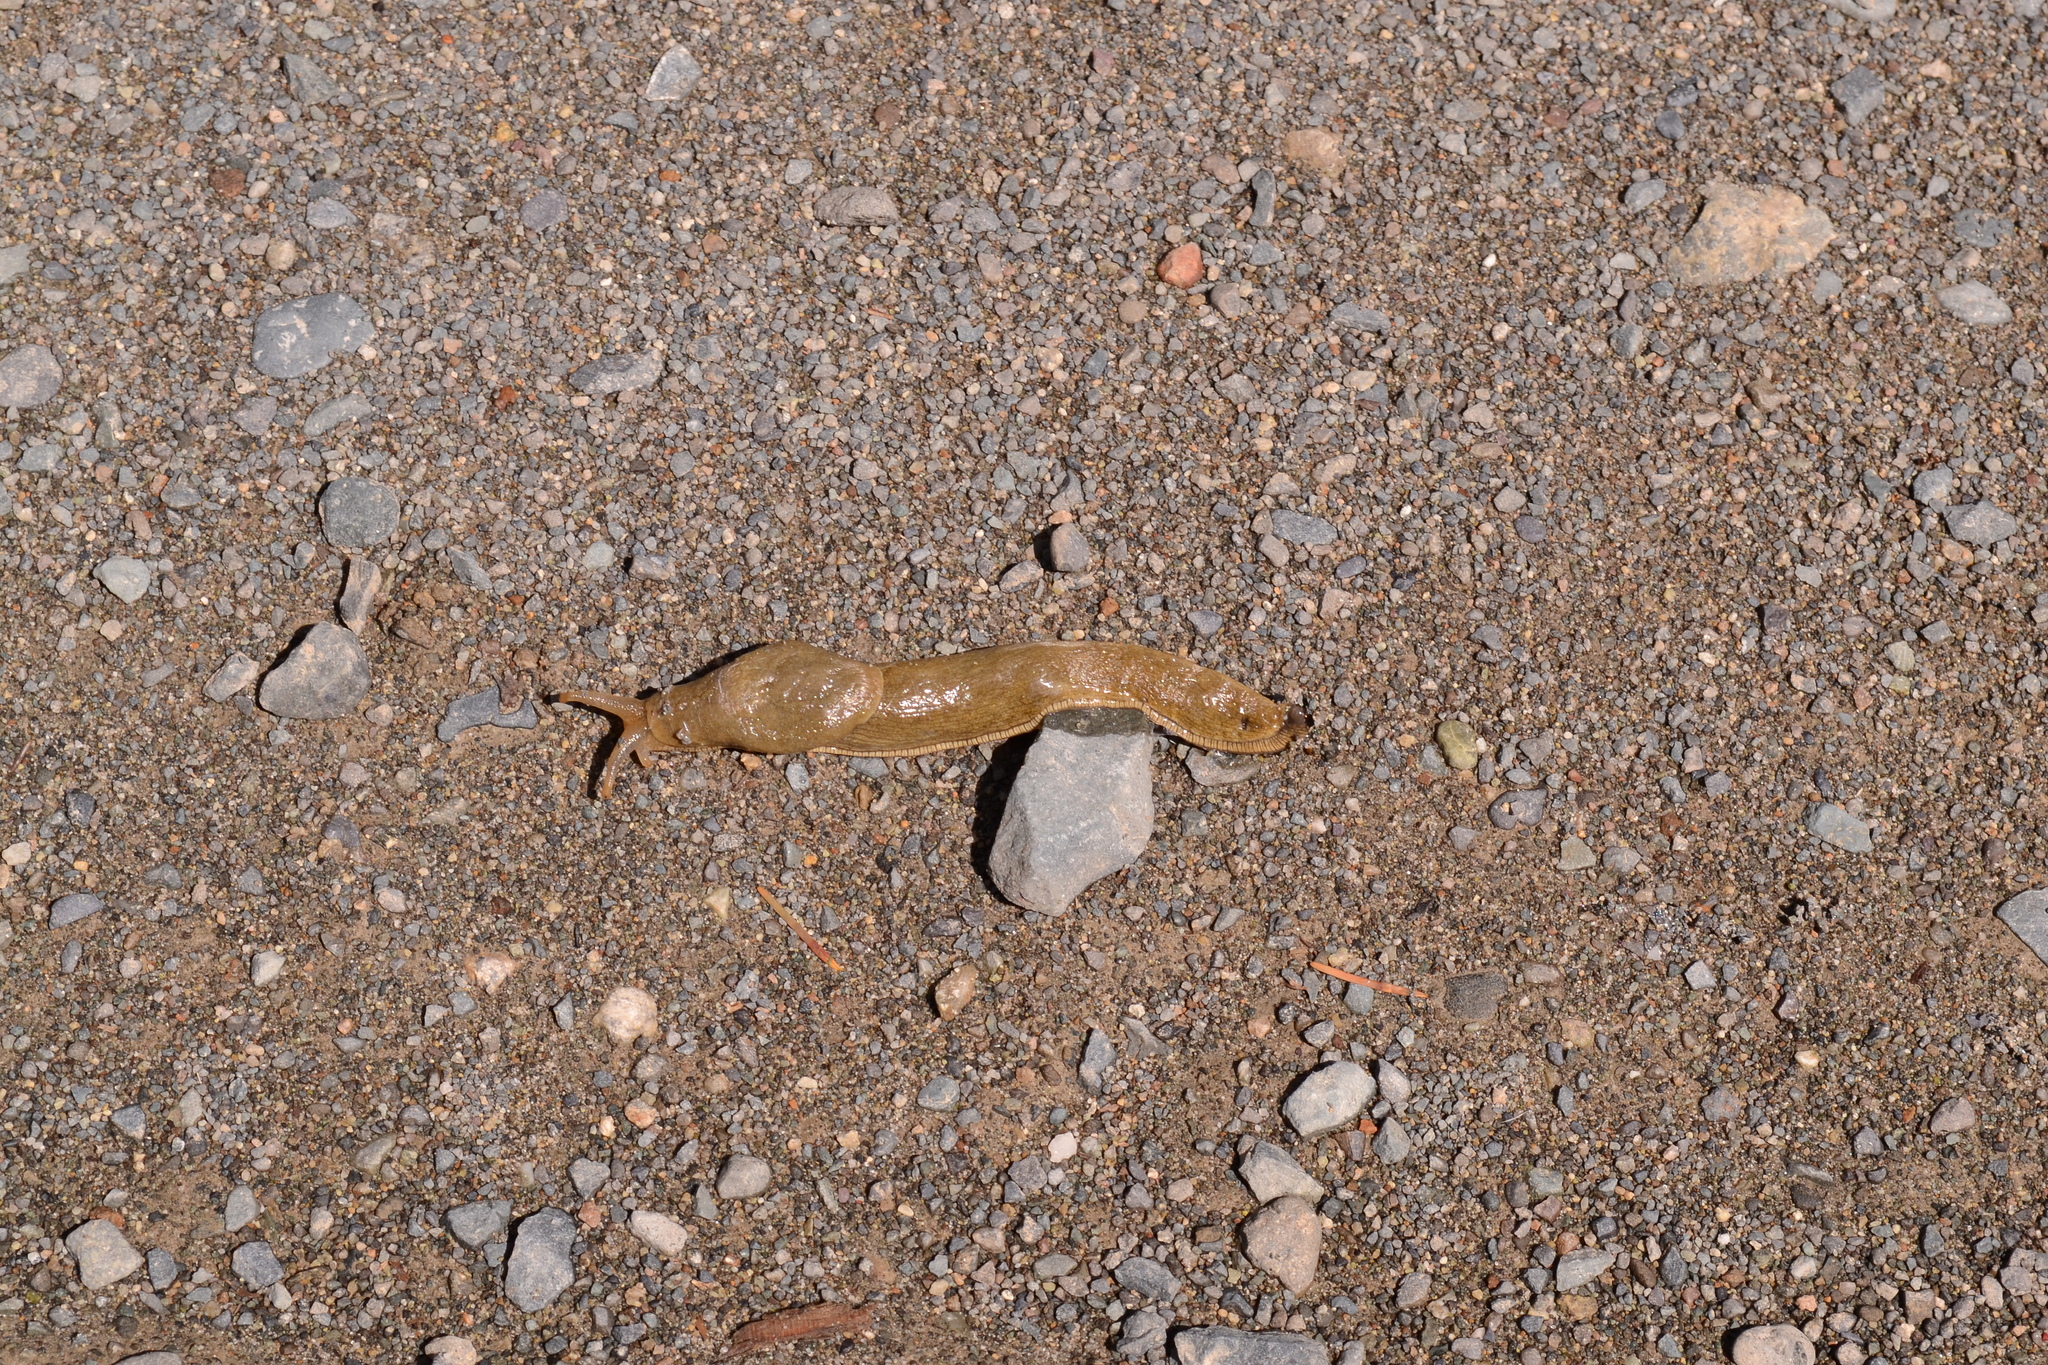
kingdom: Animalia
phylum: Mollusca
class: Gastropoda
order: Stylommatophora
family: Ariolimacidae
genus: Ariolimax
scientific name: Ariolimax columbianus
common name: Pacific banana slug
